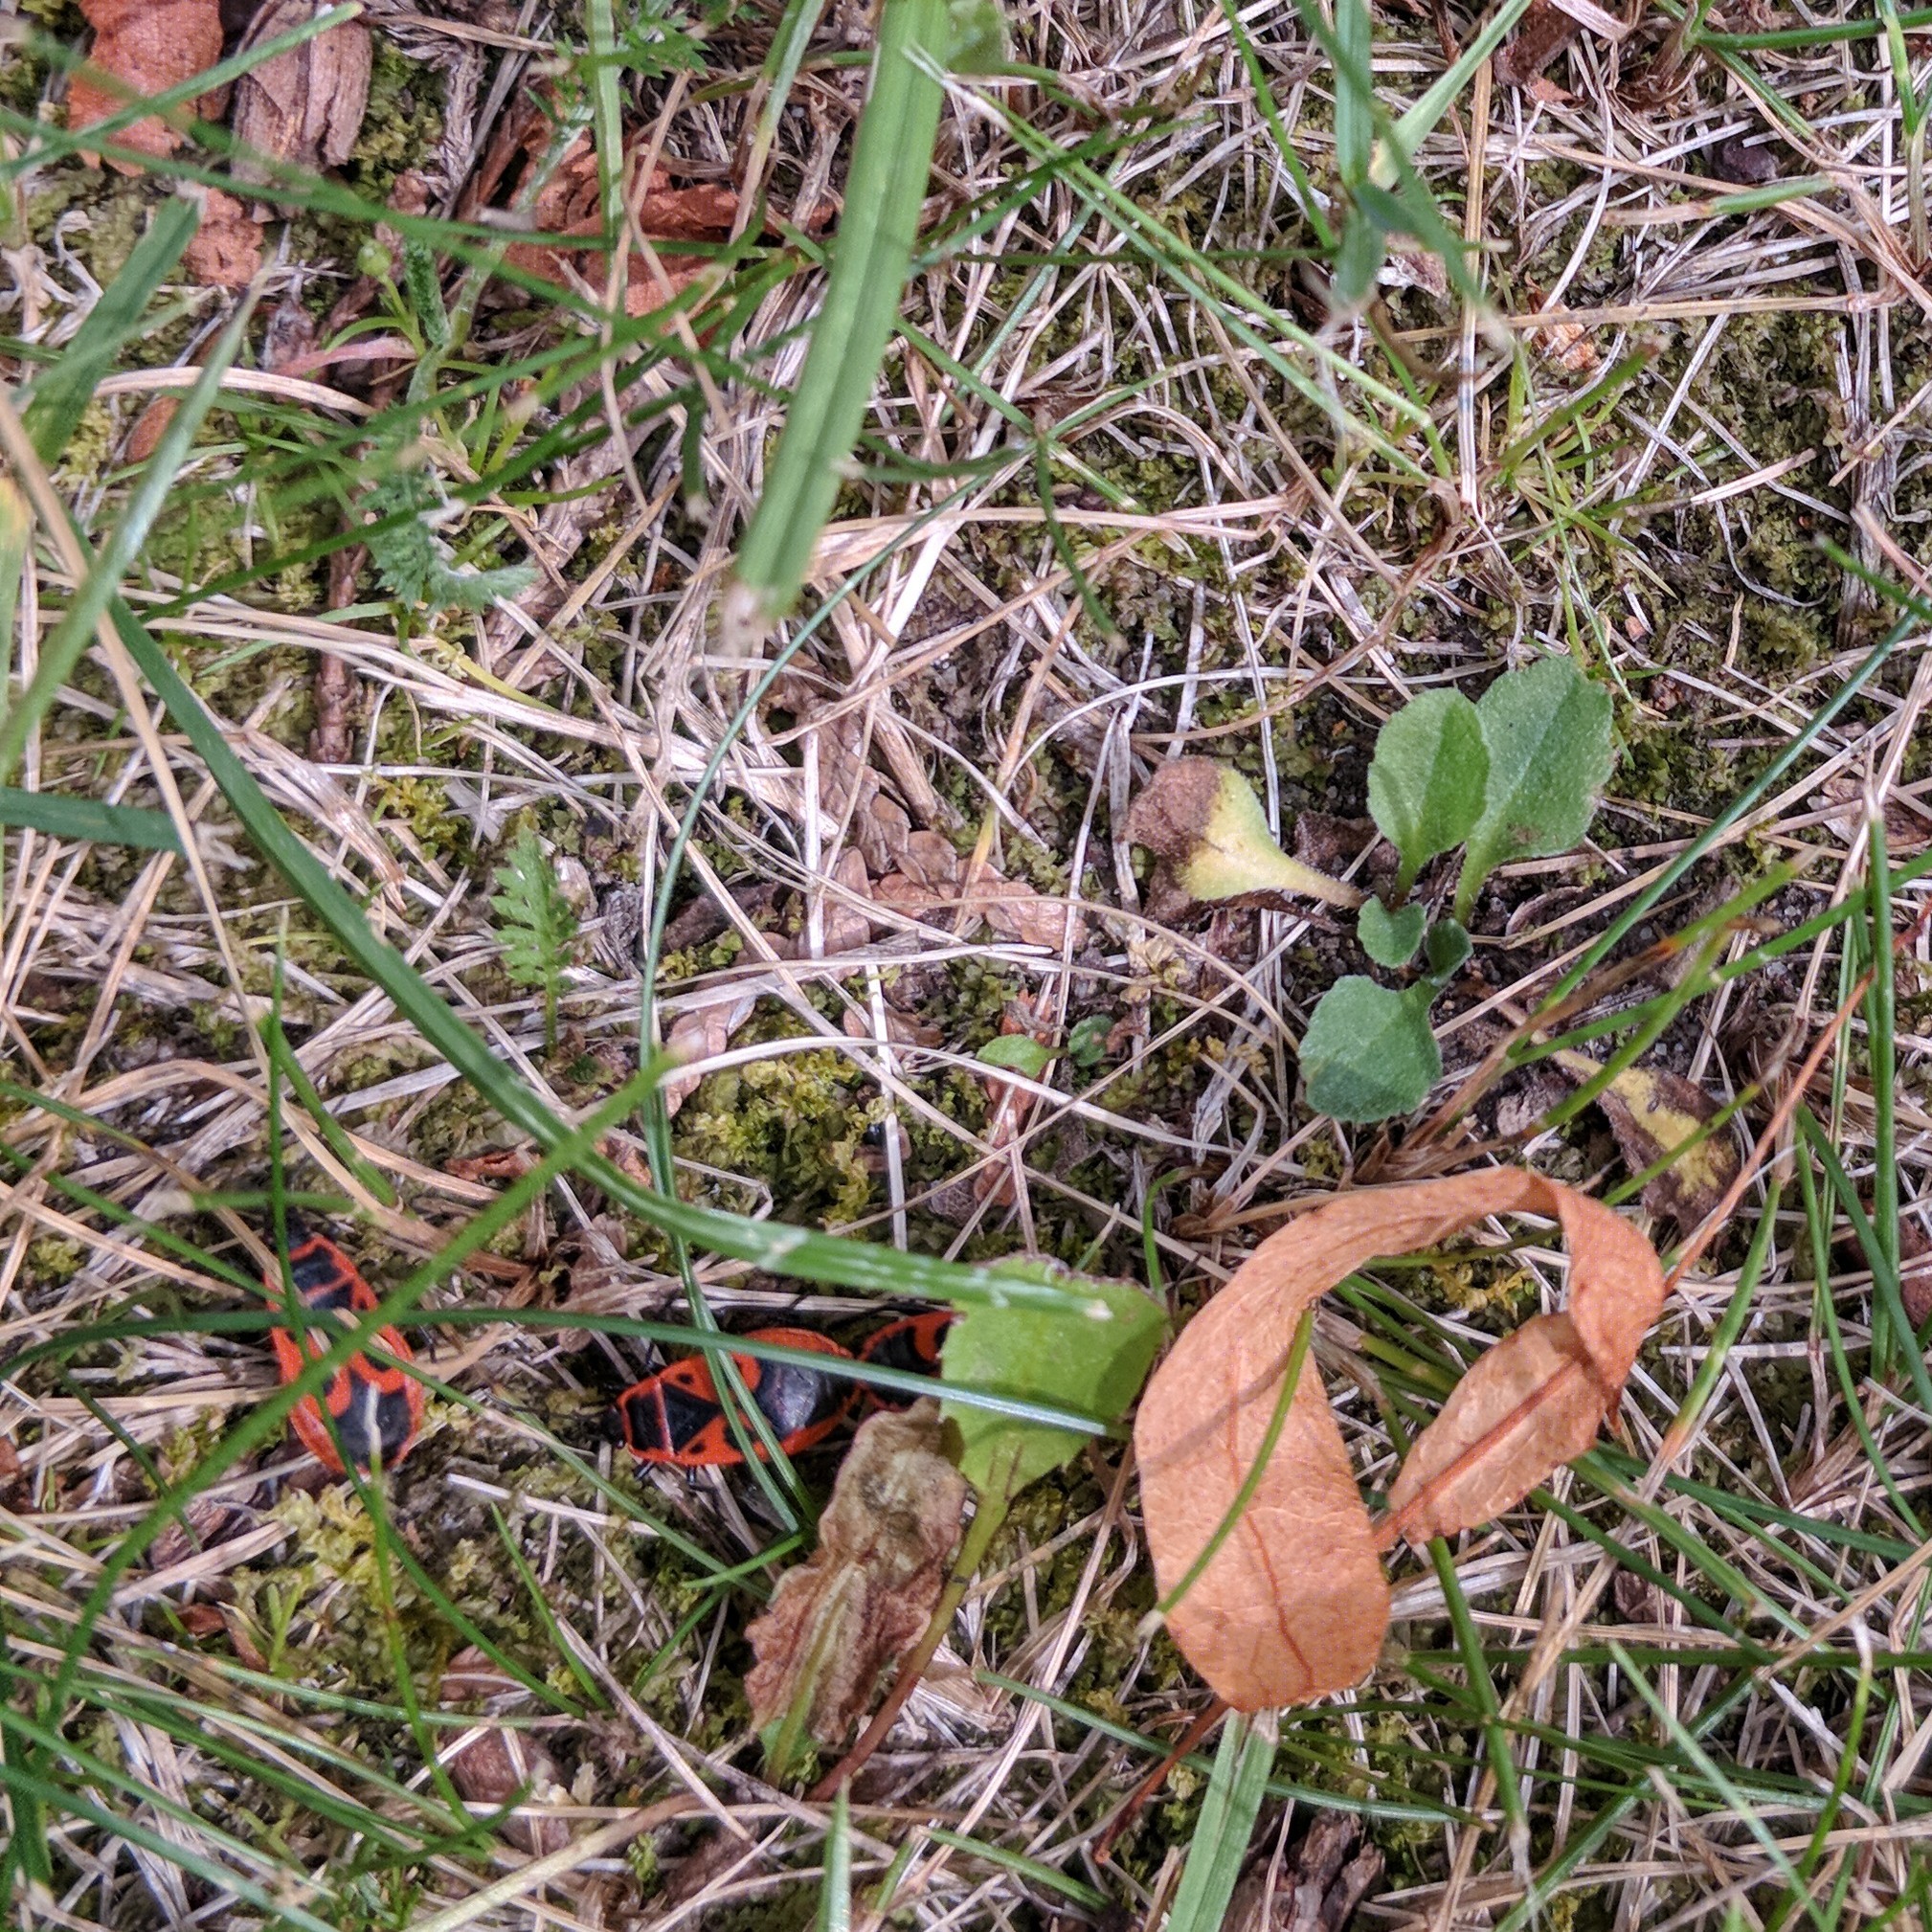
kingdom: Animalia
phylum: Arthropoda
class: Insecta
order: Hemiptera
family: Pyrrhocoridae
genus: Pyrrhocoris
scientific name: Pyrrhocoris apterus
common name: Firebug
